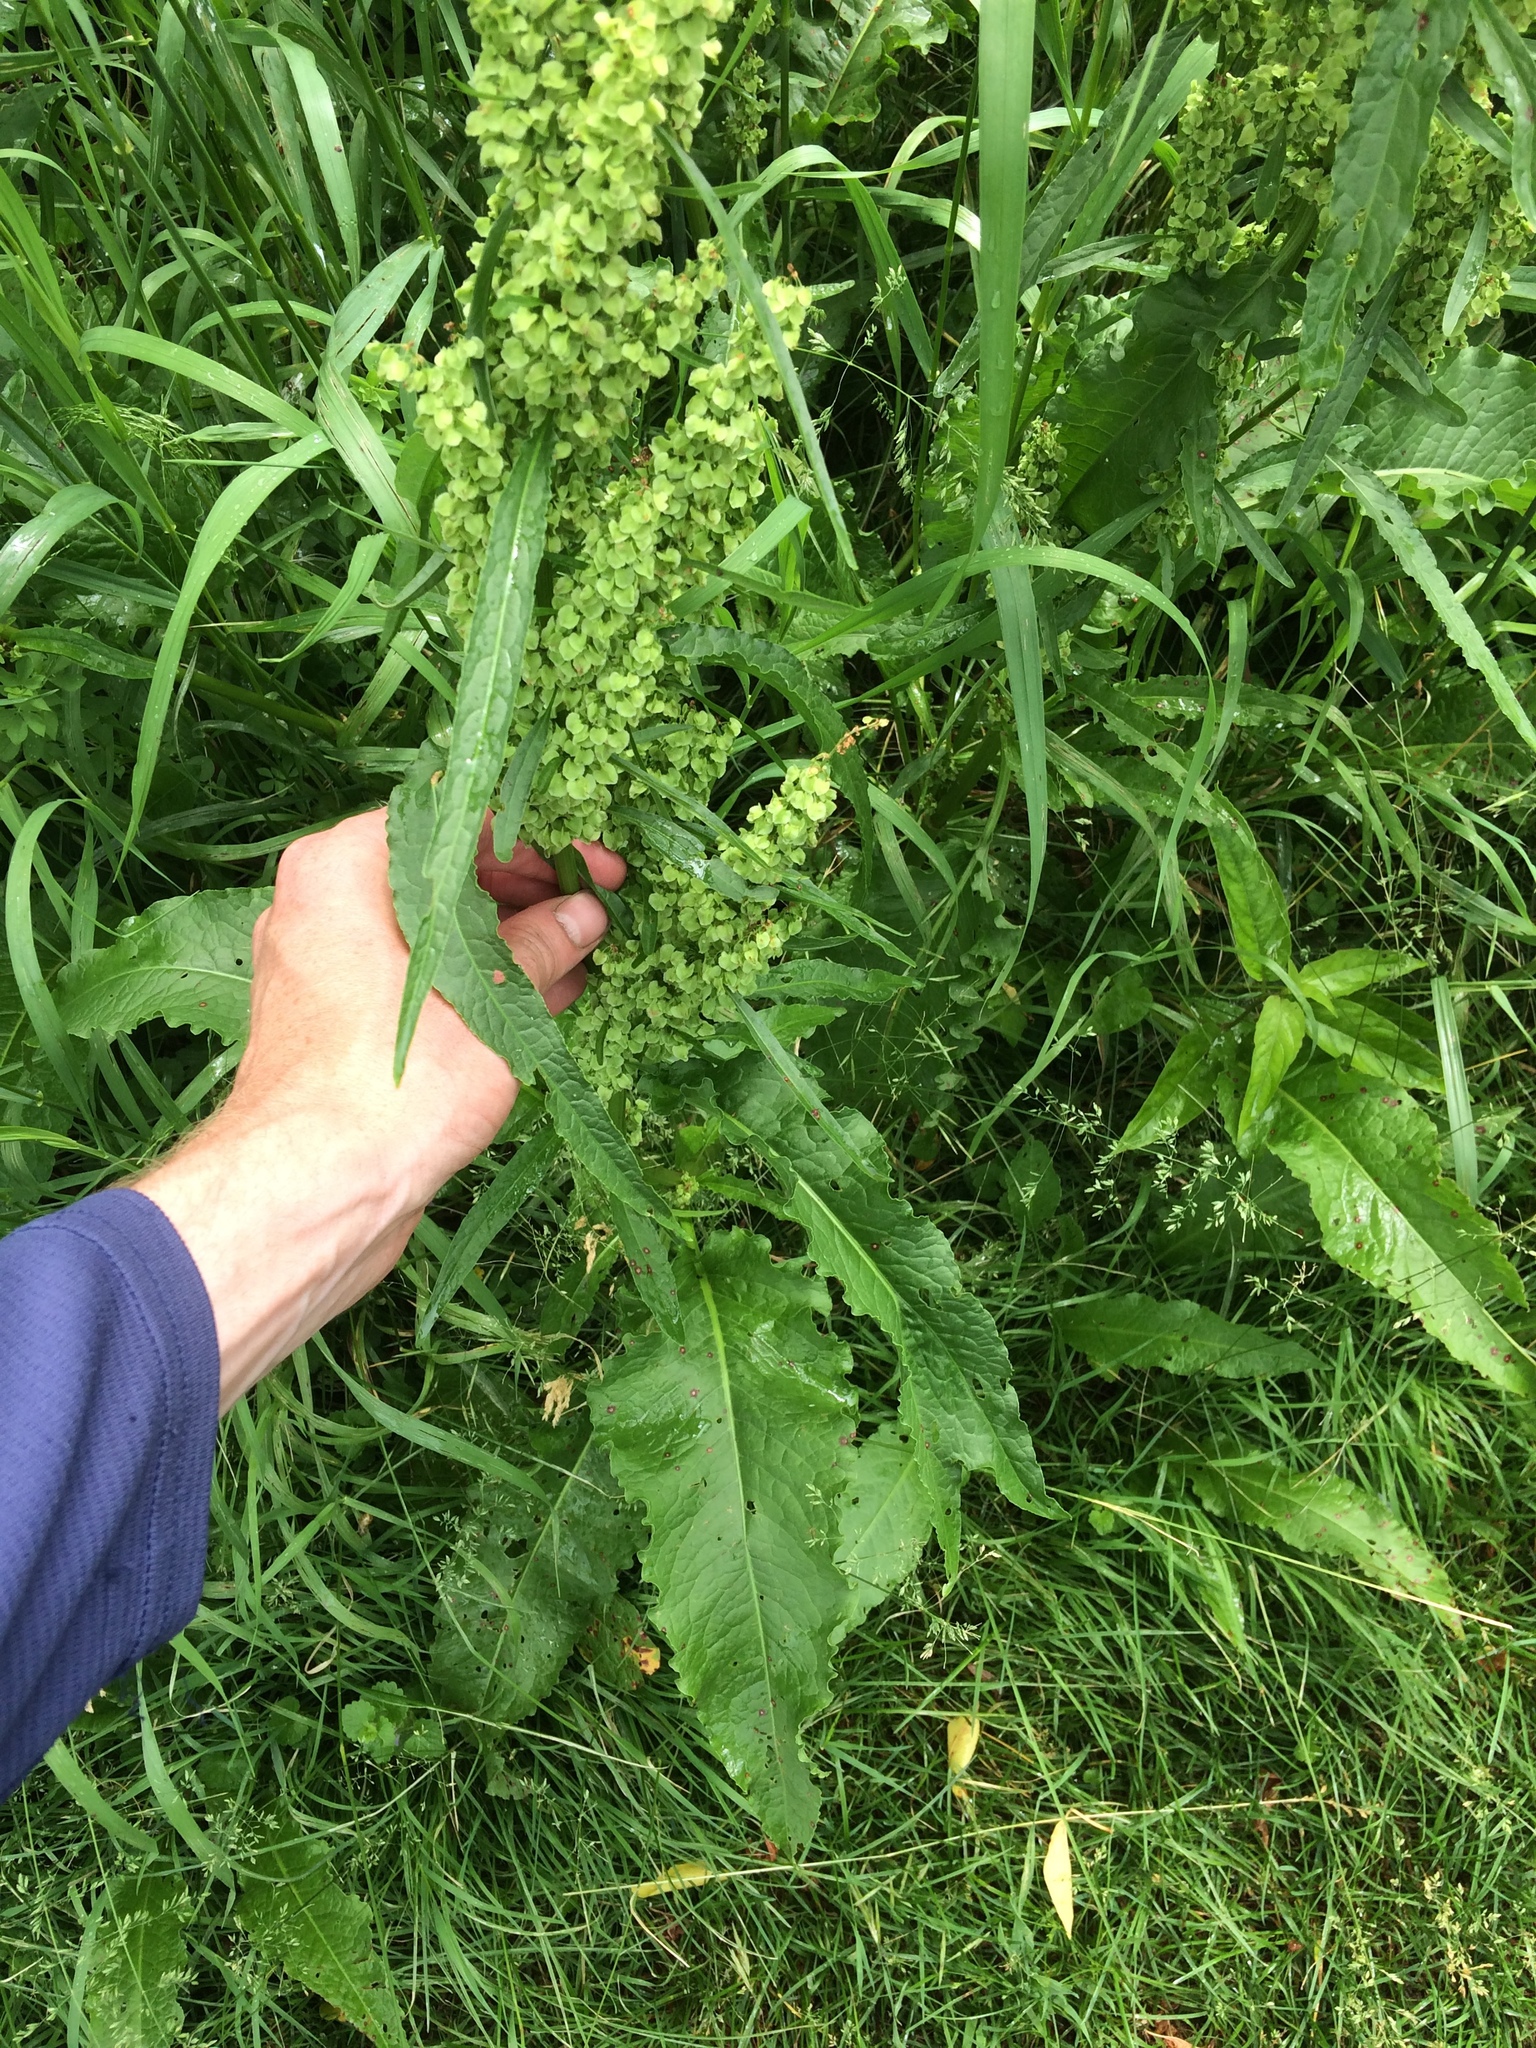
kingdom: Plantae
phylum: Tracheophyta
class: Magnoliopsida
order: Caryophyllales
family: Polygonaceae
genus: Rumex
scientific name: Rumex crispus
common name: Curled dock
